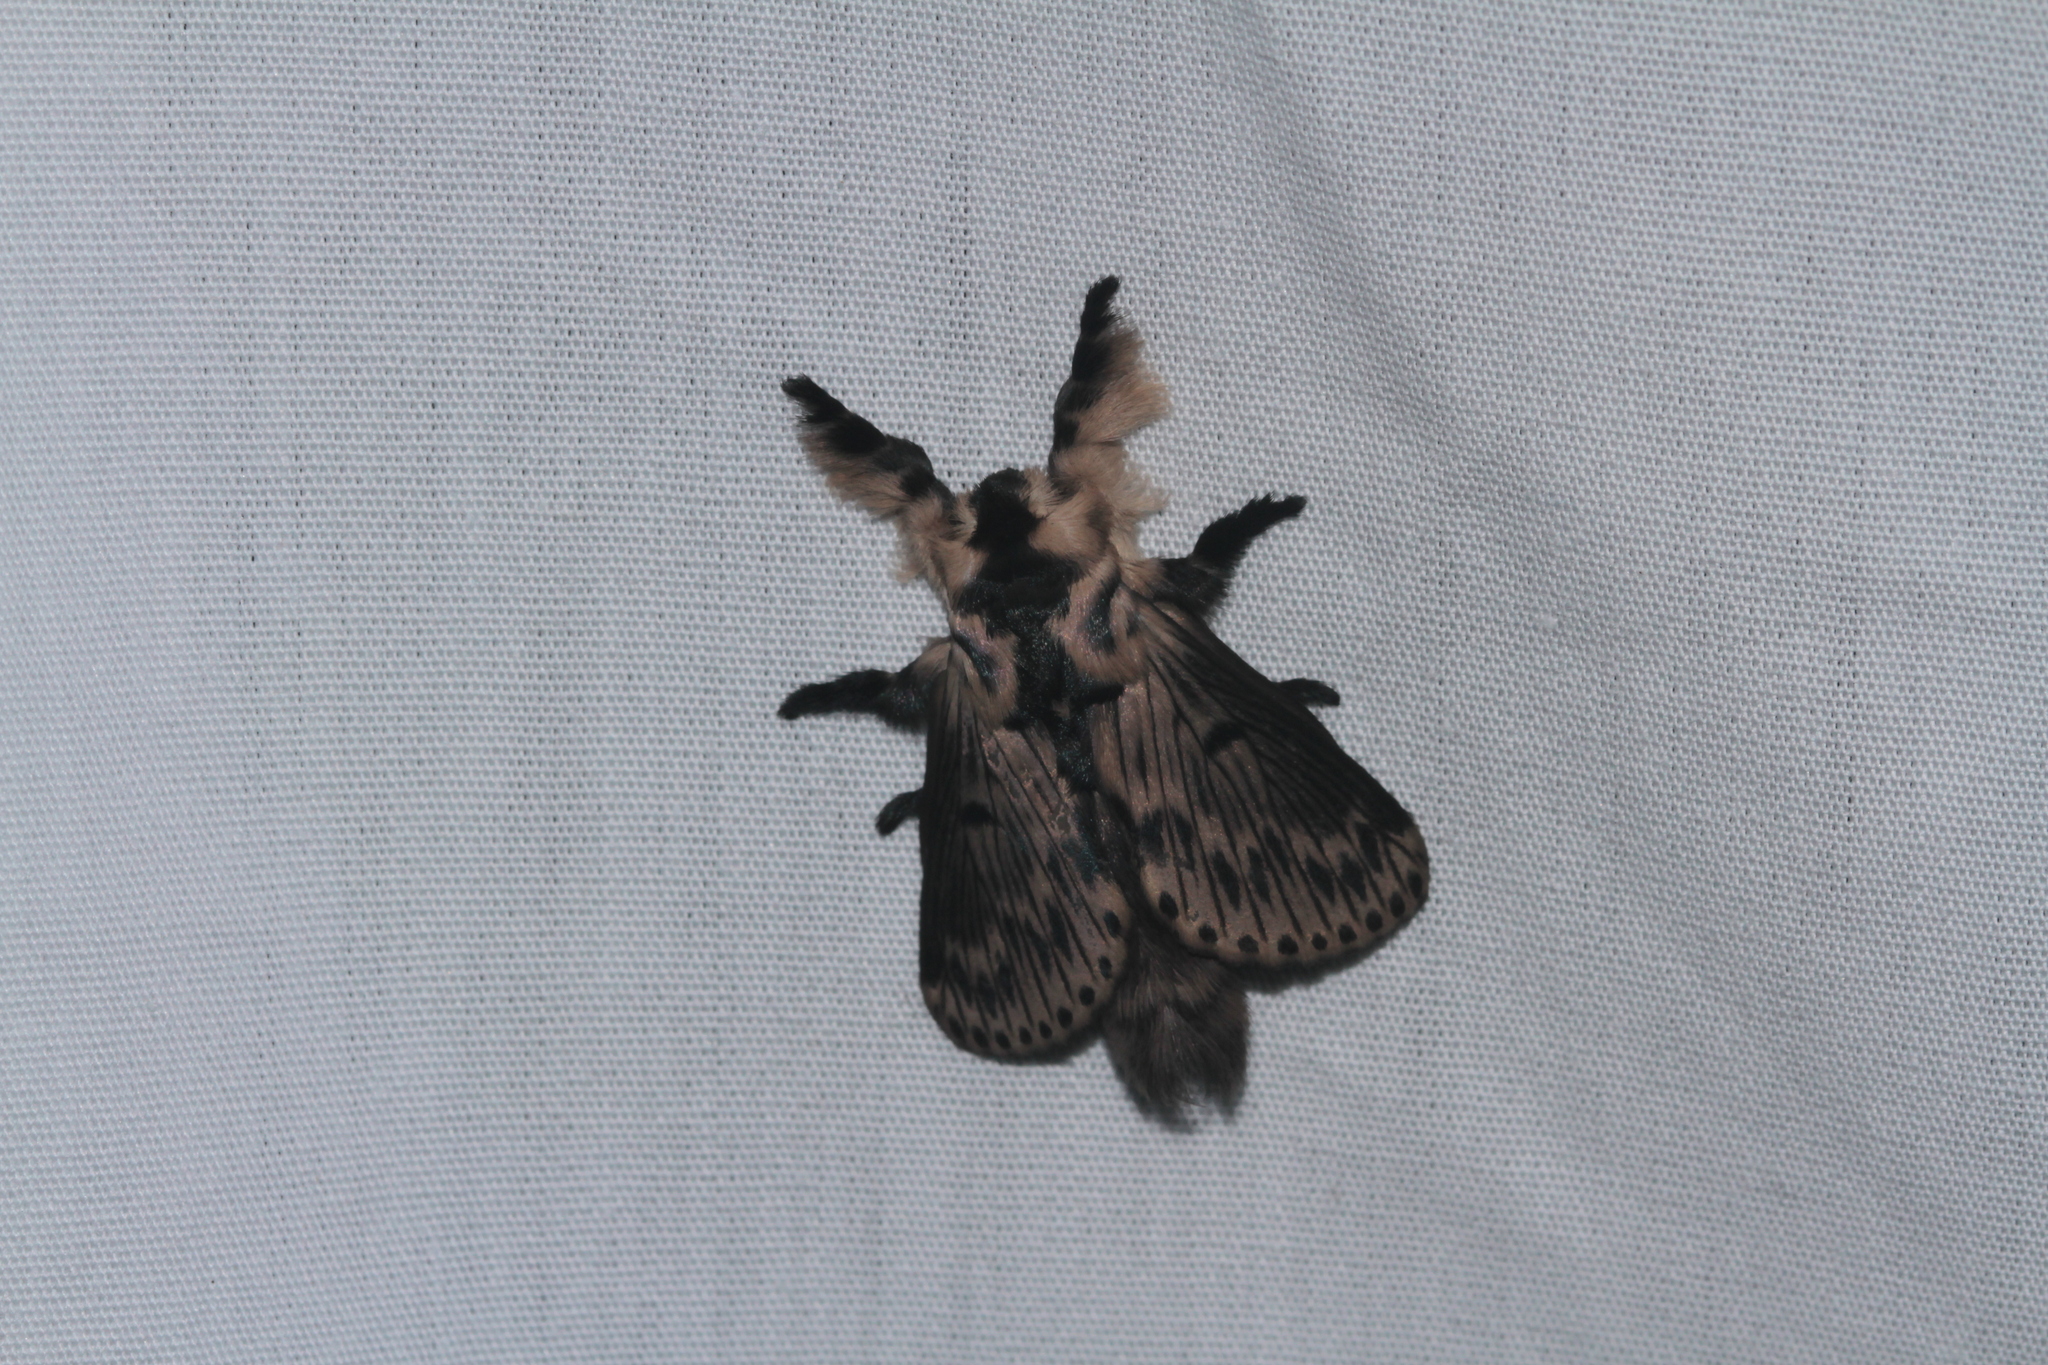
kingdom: Animalia
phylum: Arthropoda
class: Insecta
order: Lepidoptera
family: Lasiocampidae
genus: Tolype
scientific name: Tolype interstriata
